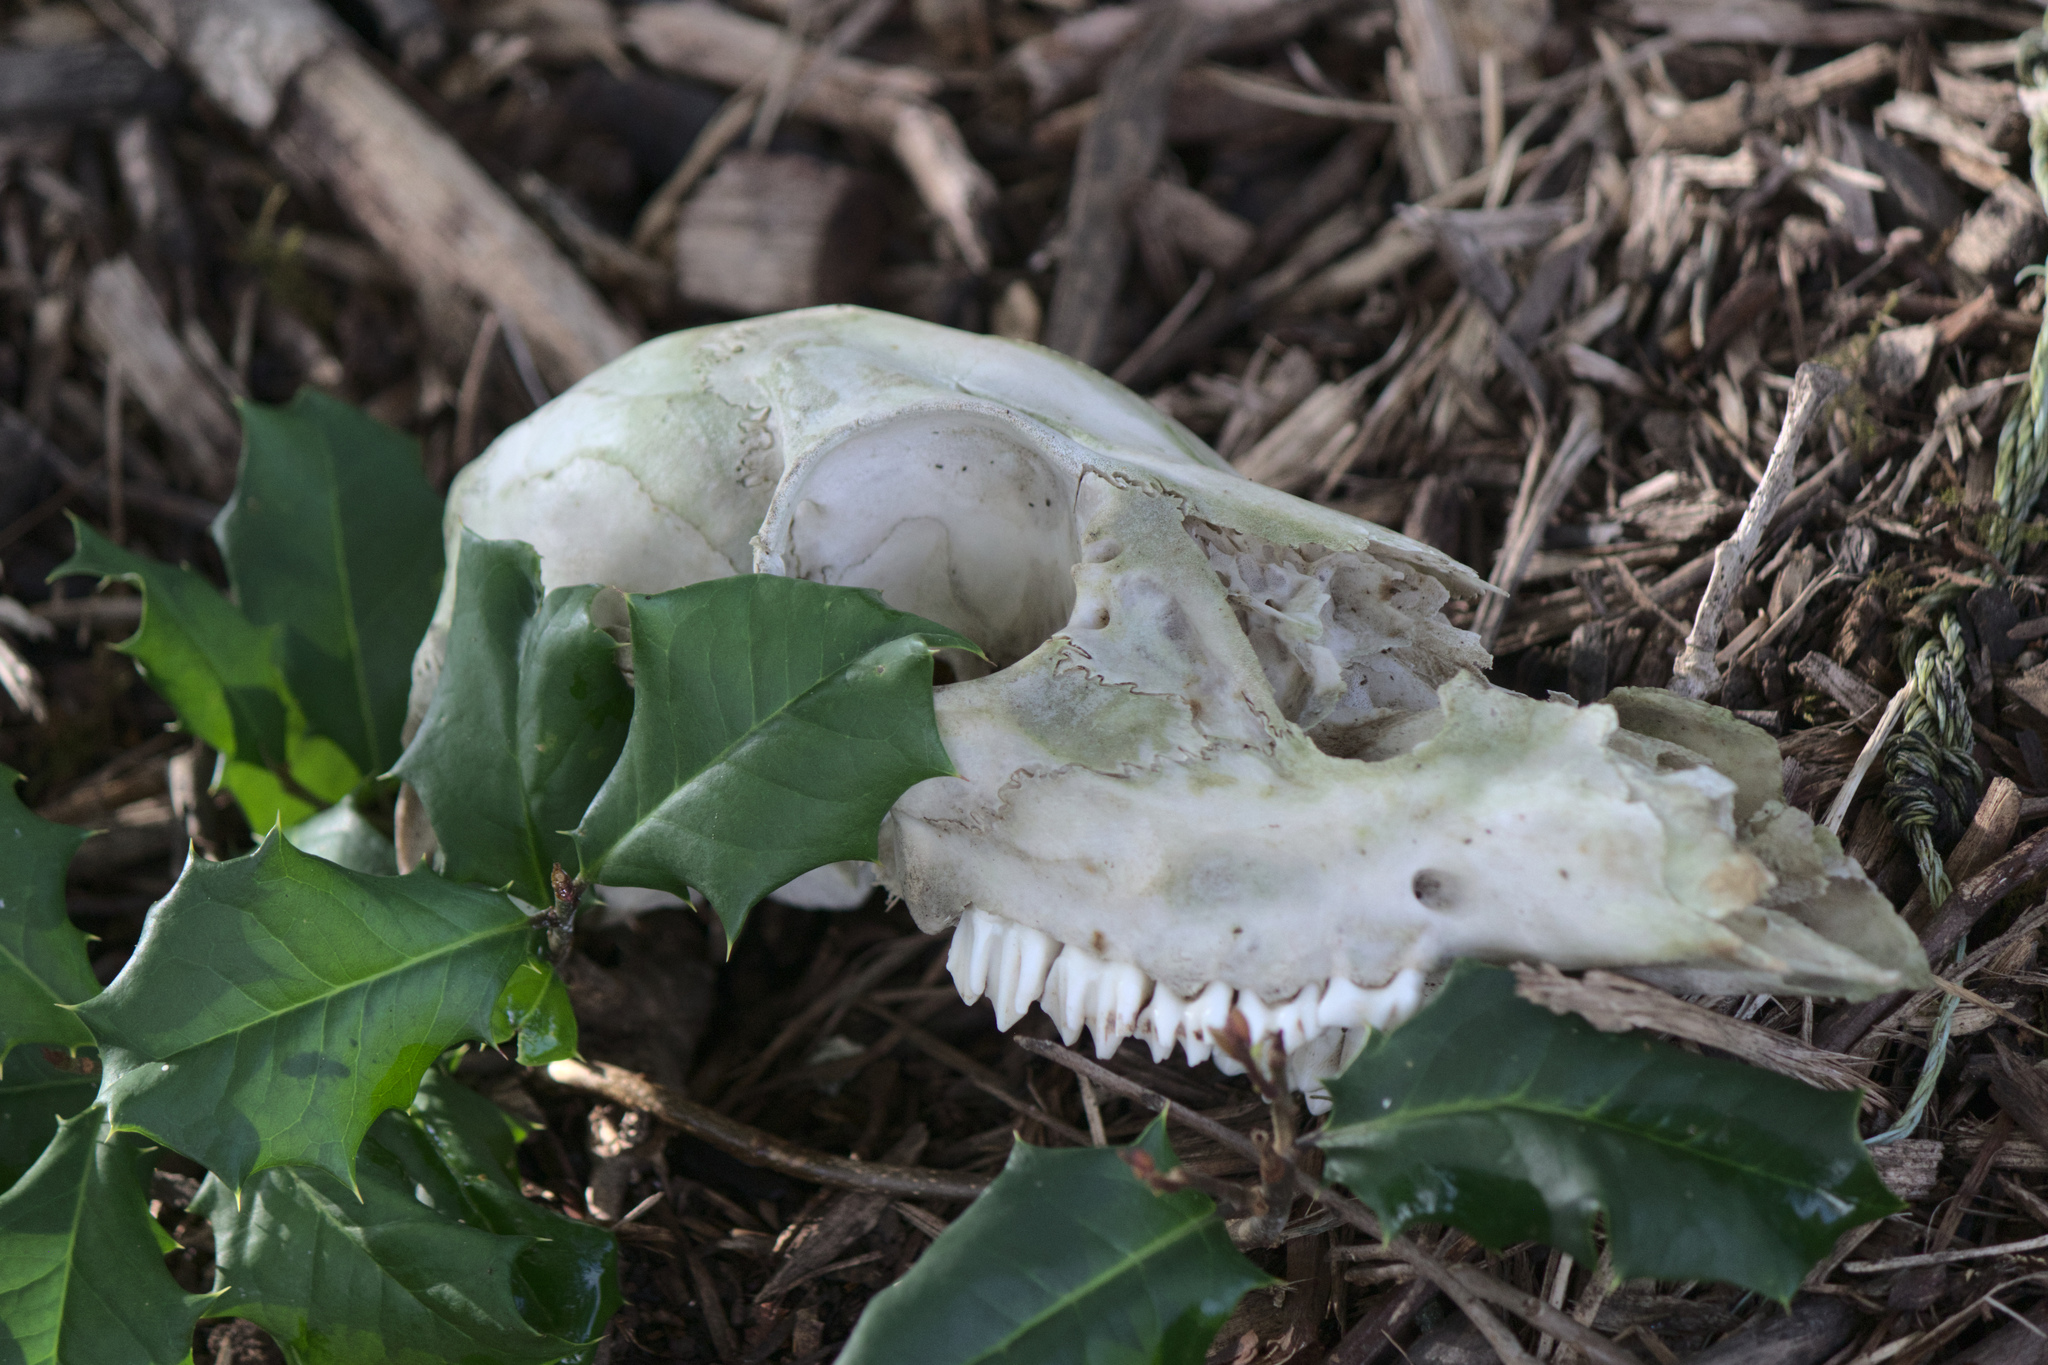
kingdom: Animalia
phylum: Chordata
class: Mammalia
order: Artiodactyla
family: Cervidae
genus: Odocoileus
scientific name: Odocoileus virginianus
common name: White-tailed deer
